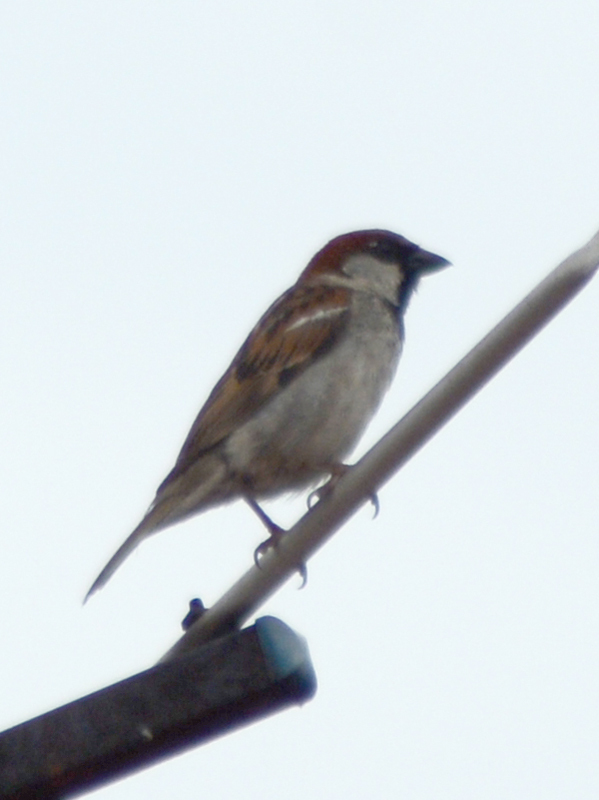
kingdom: Animalia
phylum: Chordata
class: Aves
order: Passeriformes
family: Passeridae
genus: Passer
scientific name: Passer domesticus
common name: House sparrow
